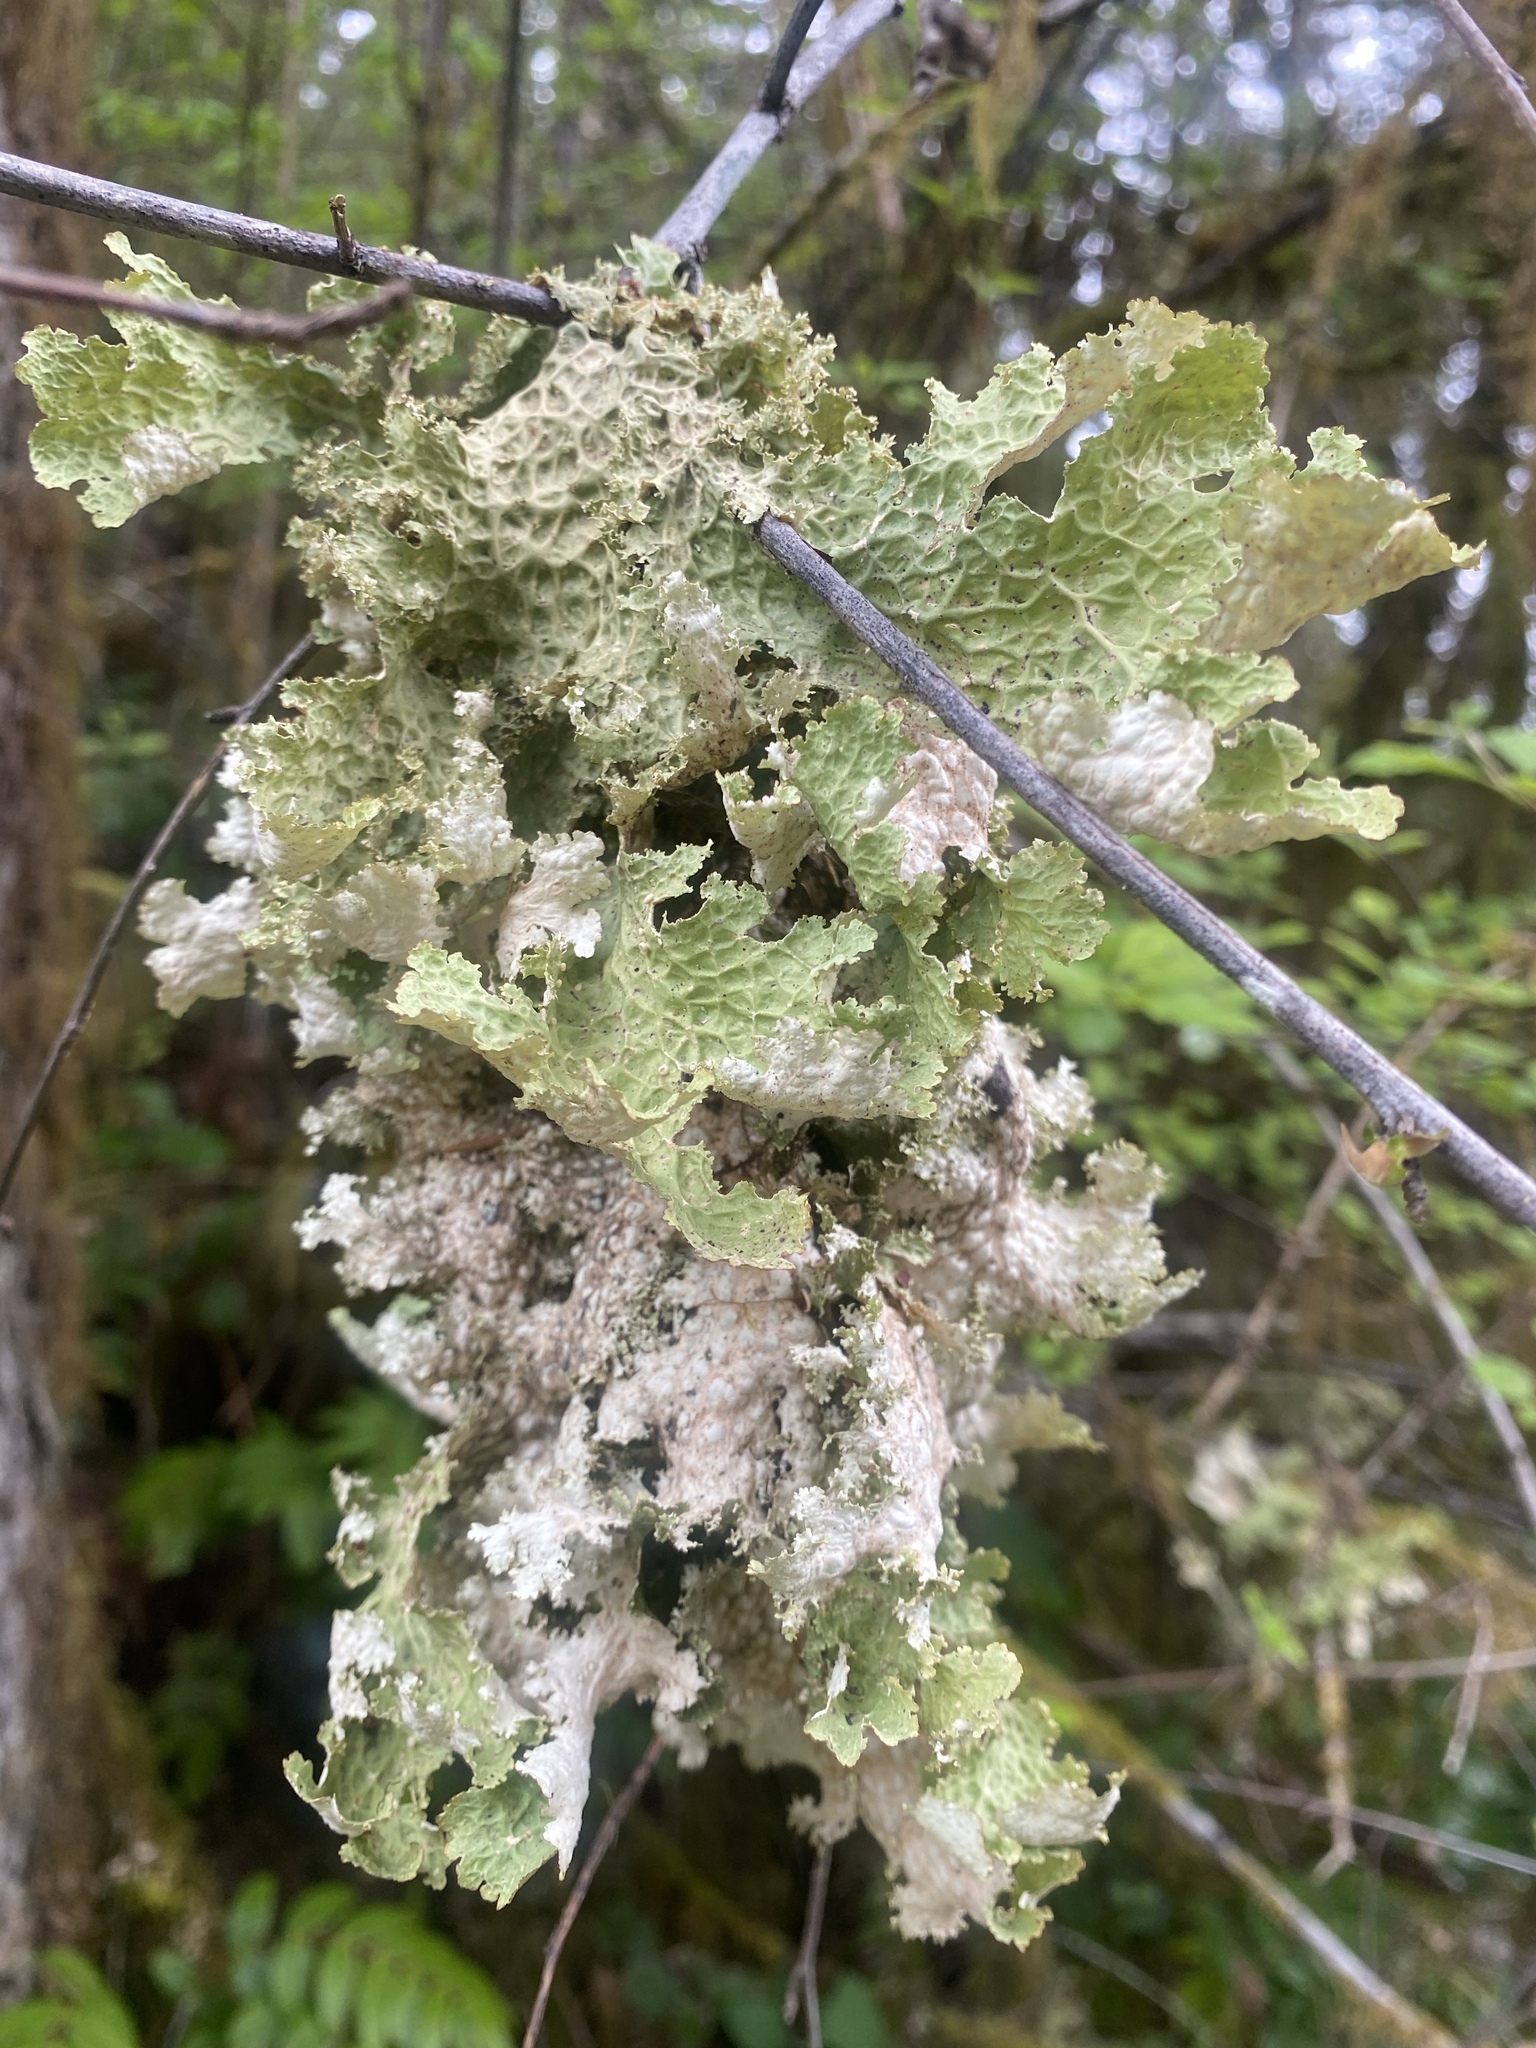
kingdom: Fungi
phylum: Ascomycota
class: Lecanoromycetes
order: Peltigerales
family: Lobariaceae
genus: Lobaria
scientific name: Lobaria oregana
